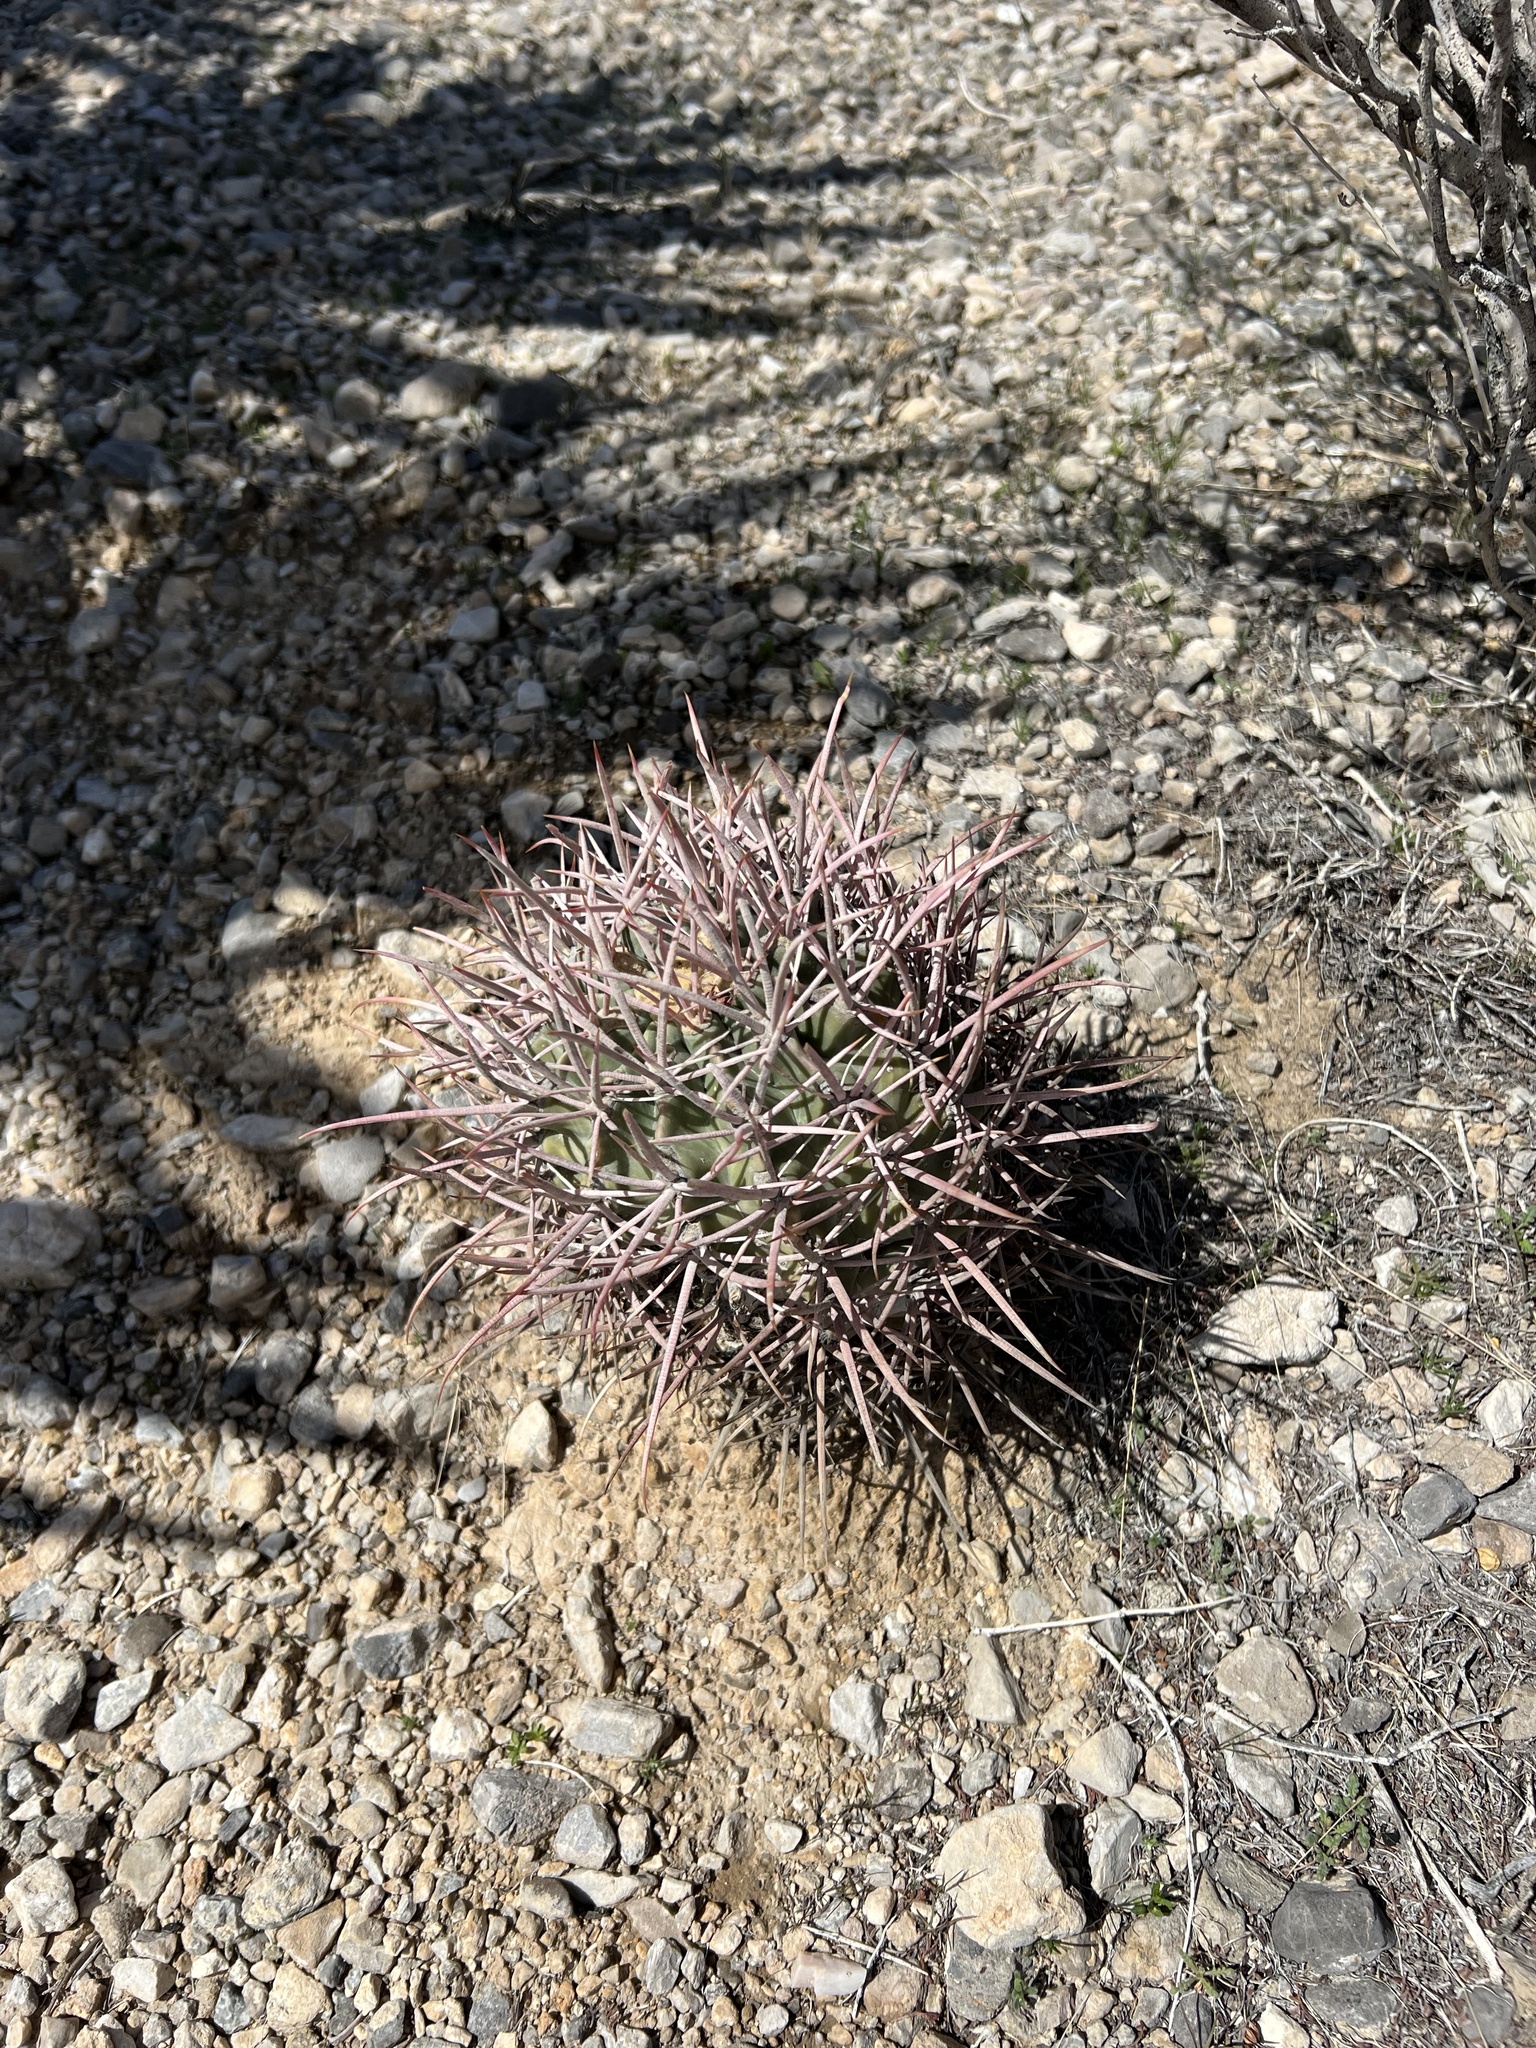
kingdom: Plantae
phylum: Tracheophyta
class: Magnoliopsida
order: Caryophyllales
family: Cactaceae
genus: Echinocactus
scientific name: Echinocactus polycephalus
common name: Cottontop cactus
